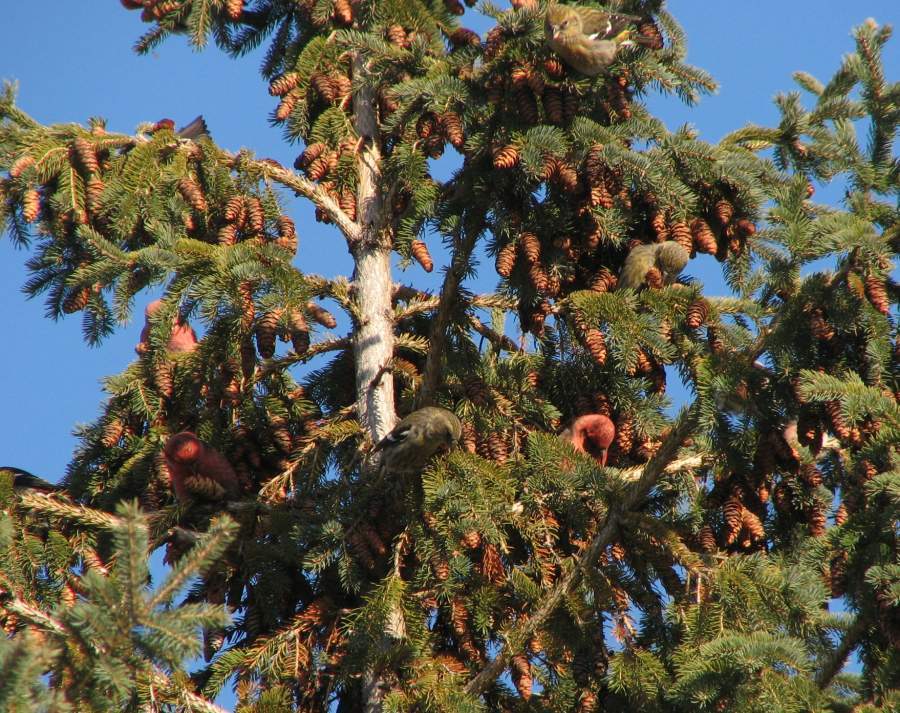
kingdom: Animalia
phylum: Chordata
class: Aves
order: Passeriformes
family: Fringillidae
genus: Loxia
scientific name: Loxia leucoptera
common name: Two-barred crossbill
